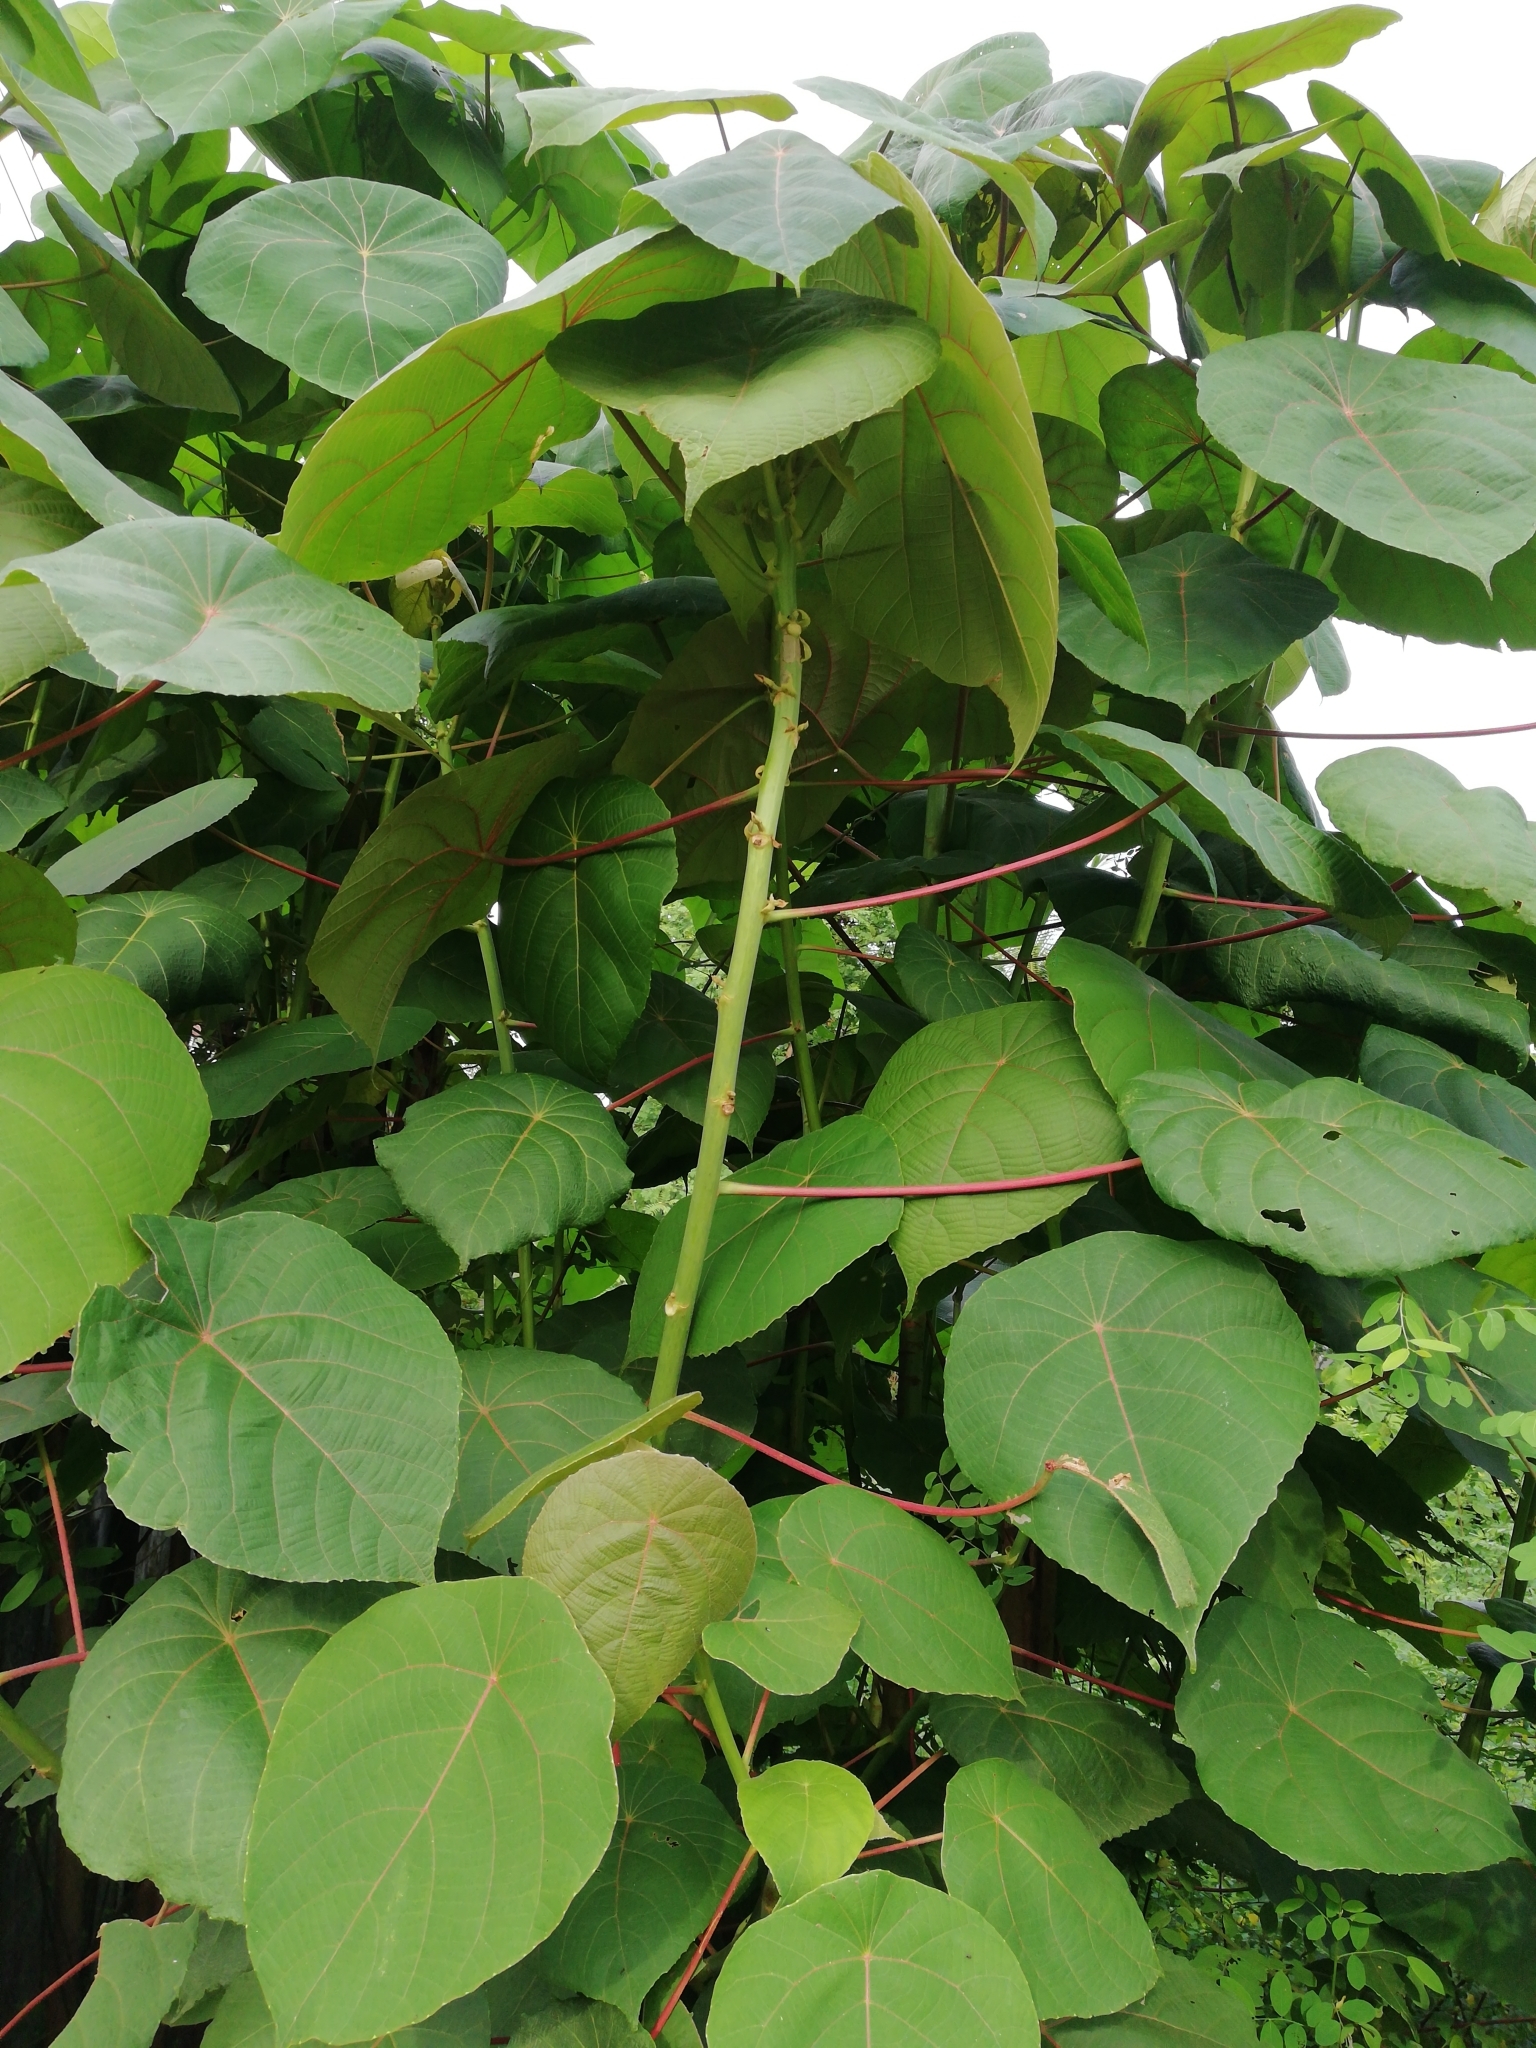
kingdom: Plantae
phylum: Tracheophyta
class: Magnoliopsida
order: Malpighiales
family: Euphorbiaceae
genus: Macaranga
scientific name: Macaranga peltata
